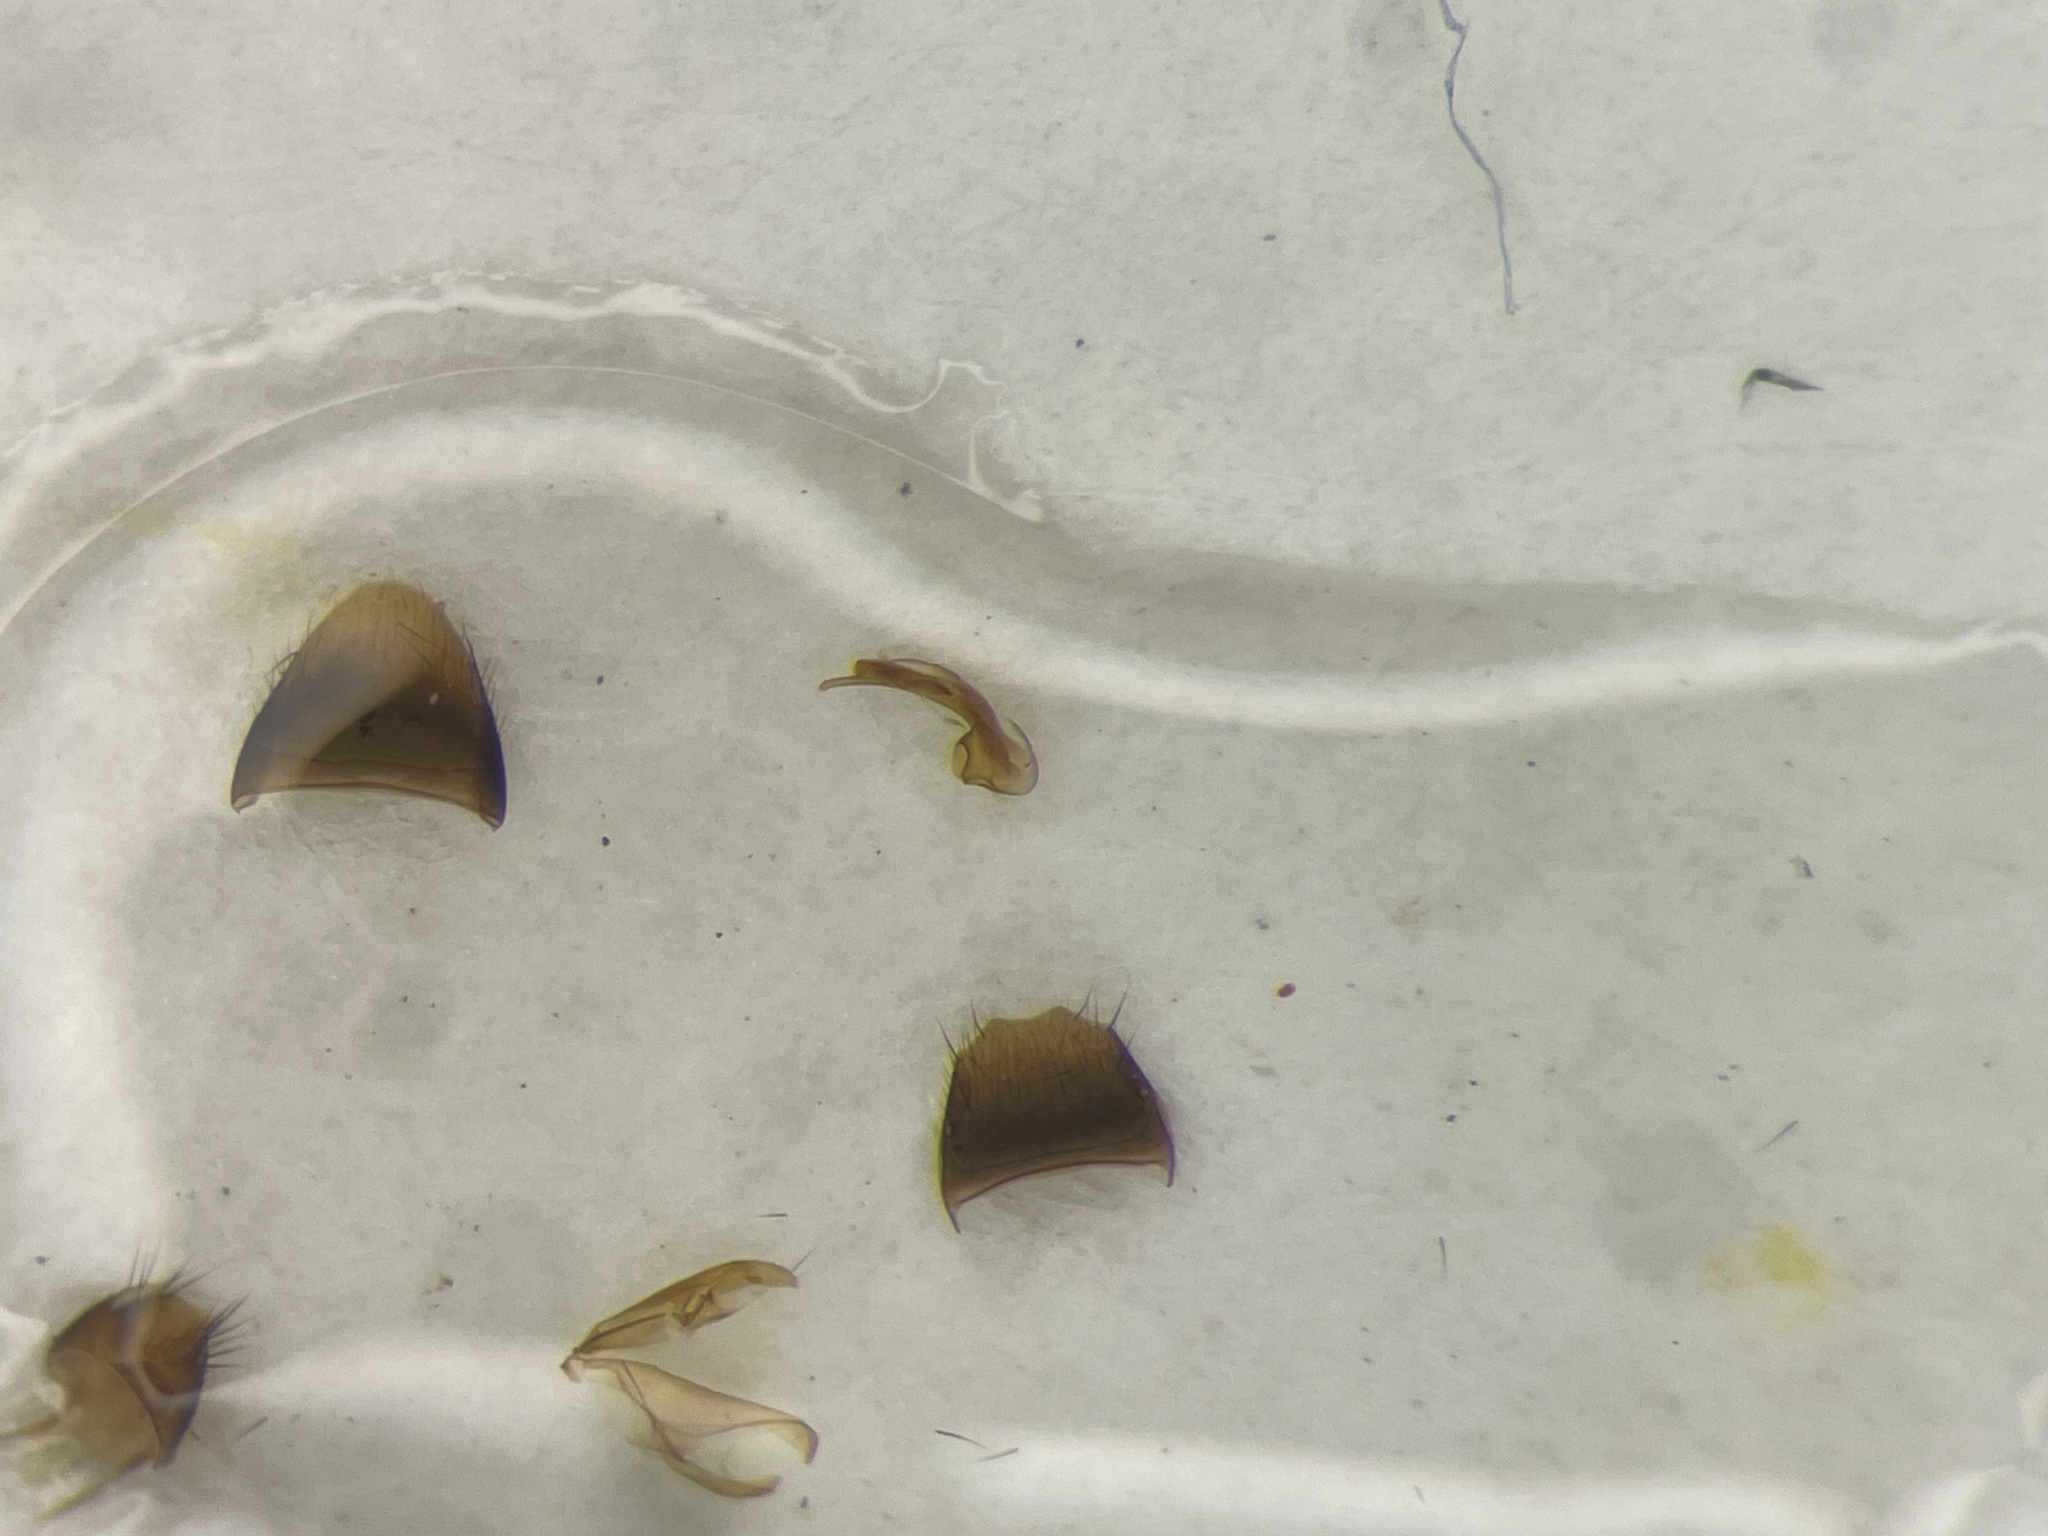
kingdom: Animalia
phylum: Arthropoda
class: Insecta
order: Coleoptera
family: Staphylinidae
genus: Atheta
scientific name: Atheta ventricosa
